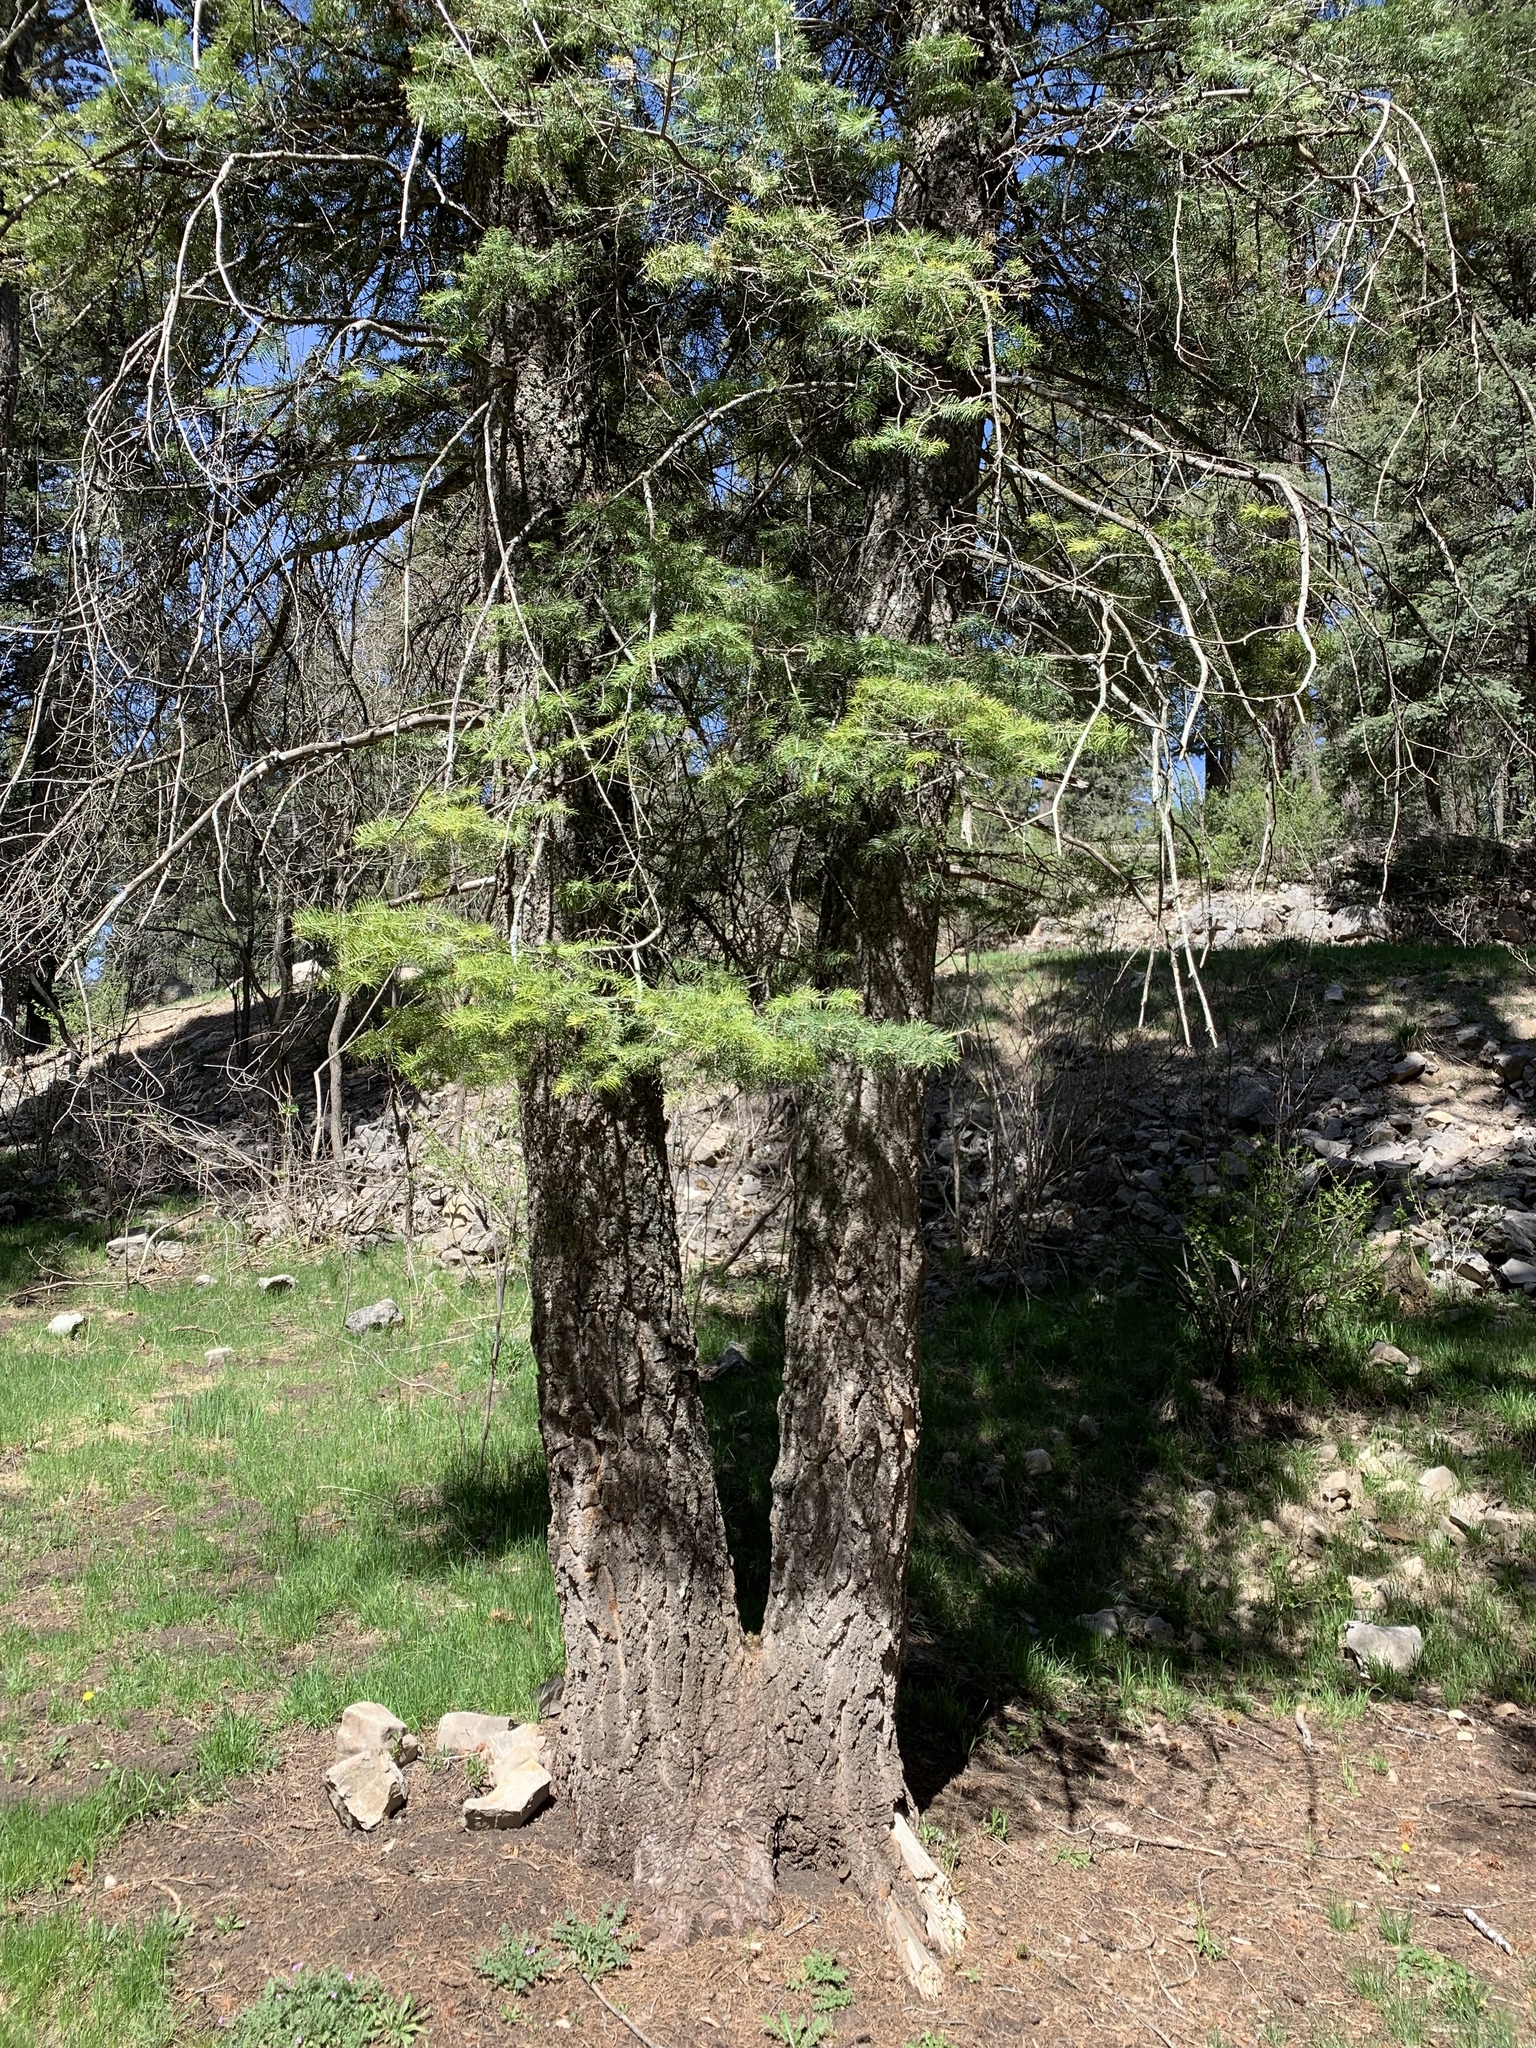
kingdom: Plantae
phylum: Tracheophyta
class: Pinopsida
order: Pinales
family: Pinaceae
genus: Abies
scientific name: Abies concolor
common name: Colorado fir
